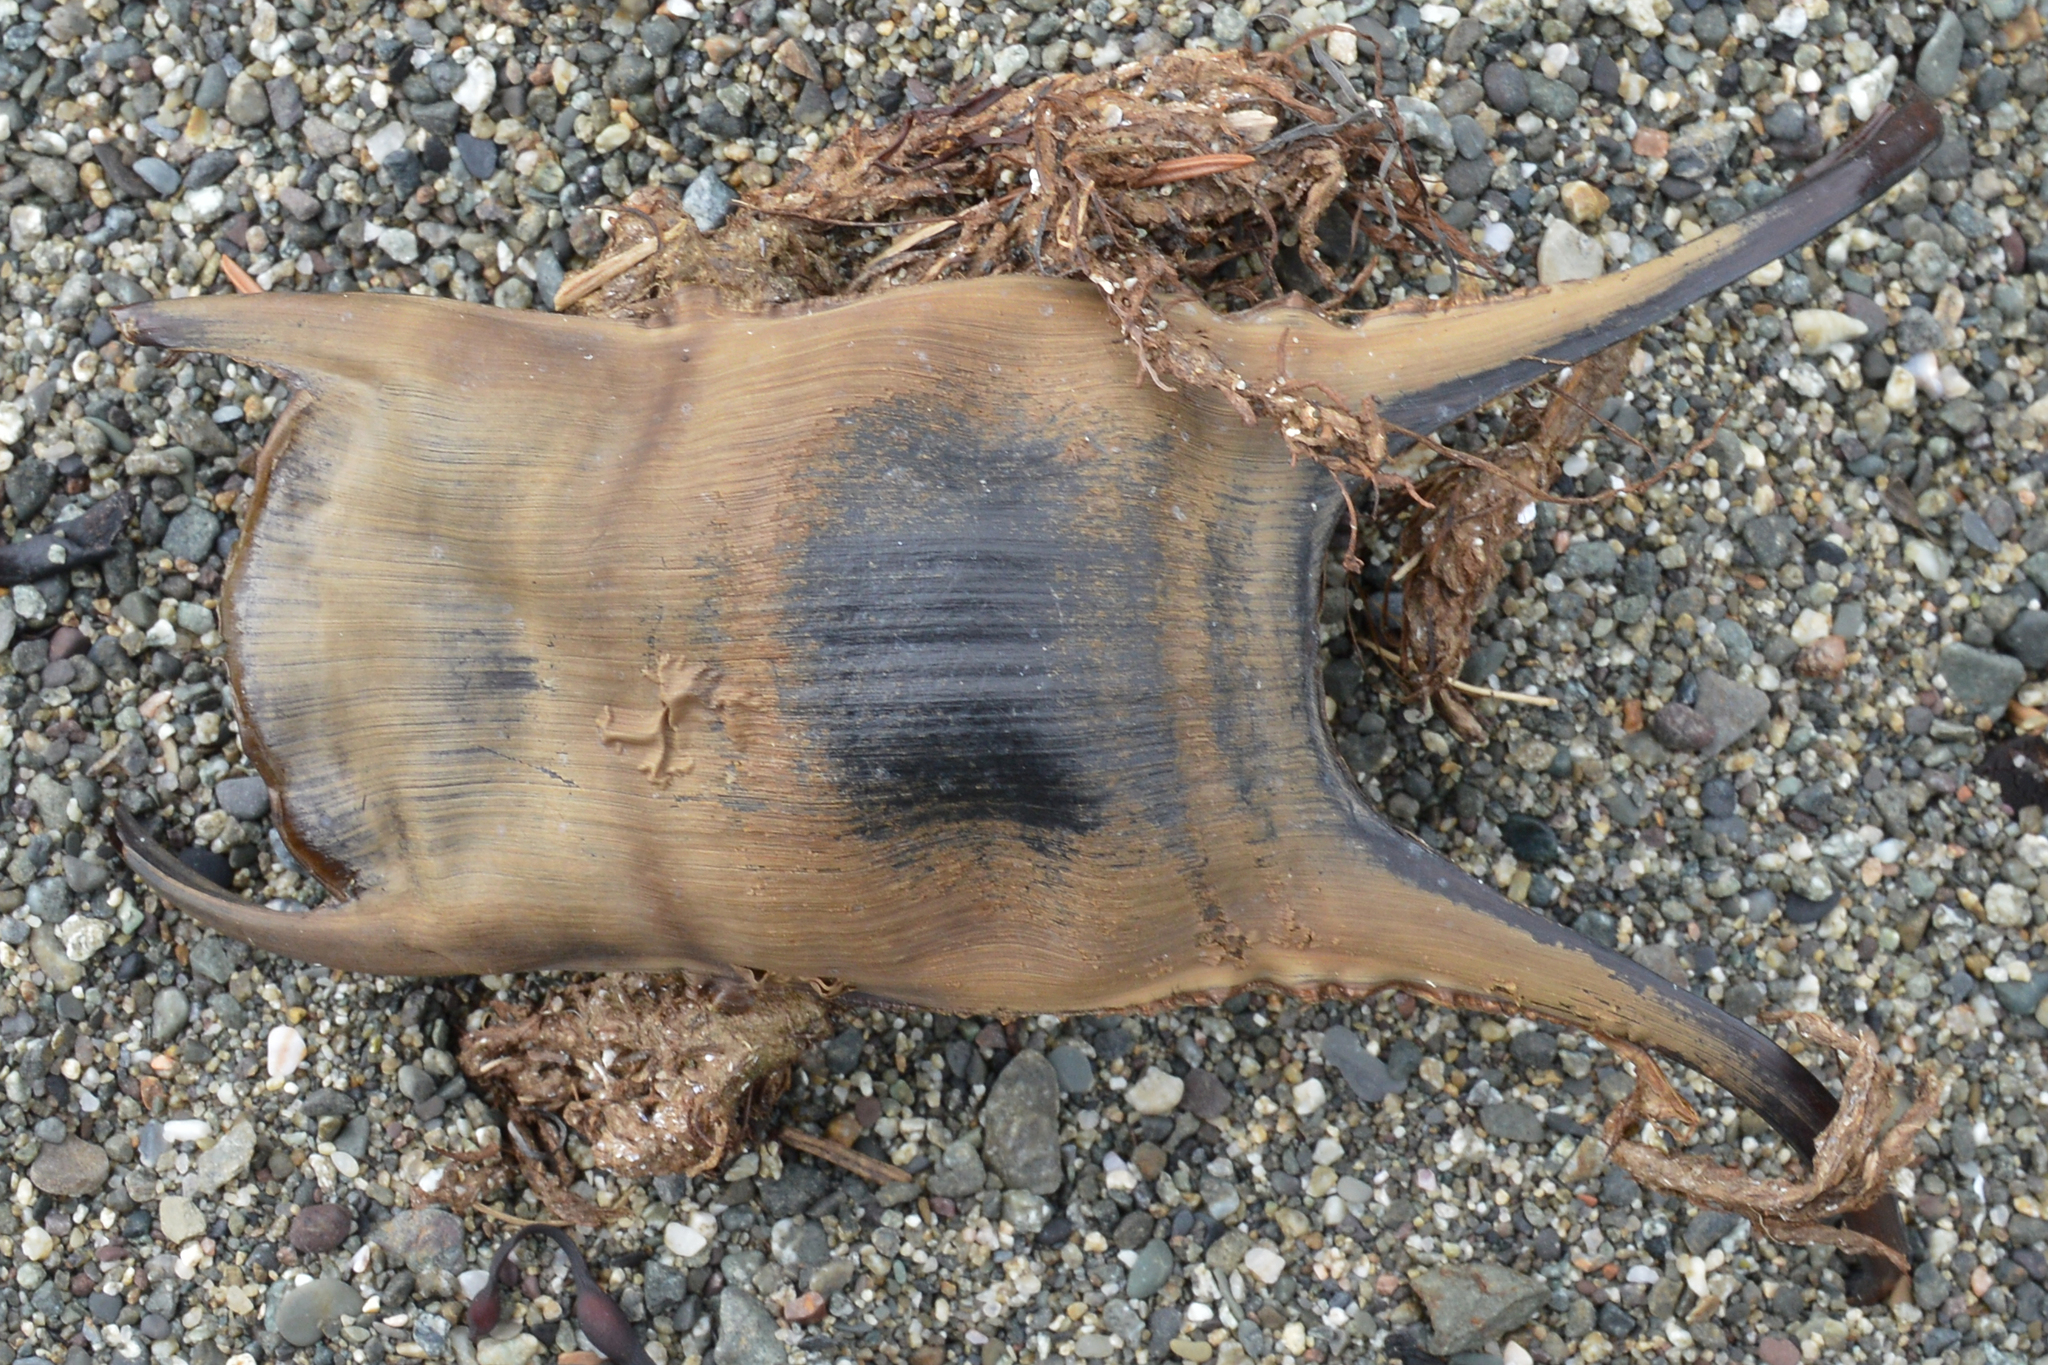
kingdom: Animalia
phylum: Chordata
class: Elasmobranchii
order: Rajiformes
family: Rajidae
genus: Leucoraja
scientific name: Leucoraja ocellata
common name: Winter skate
